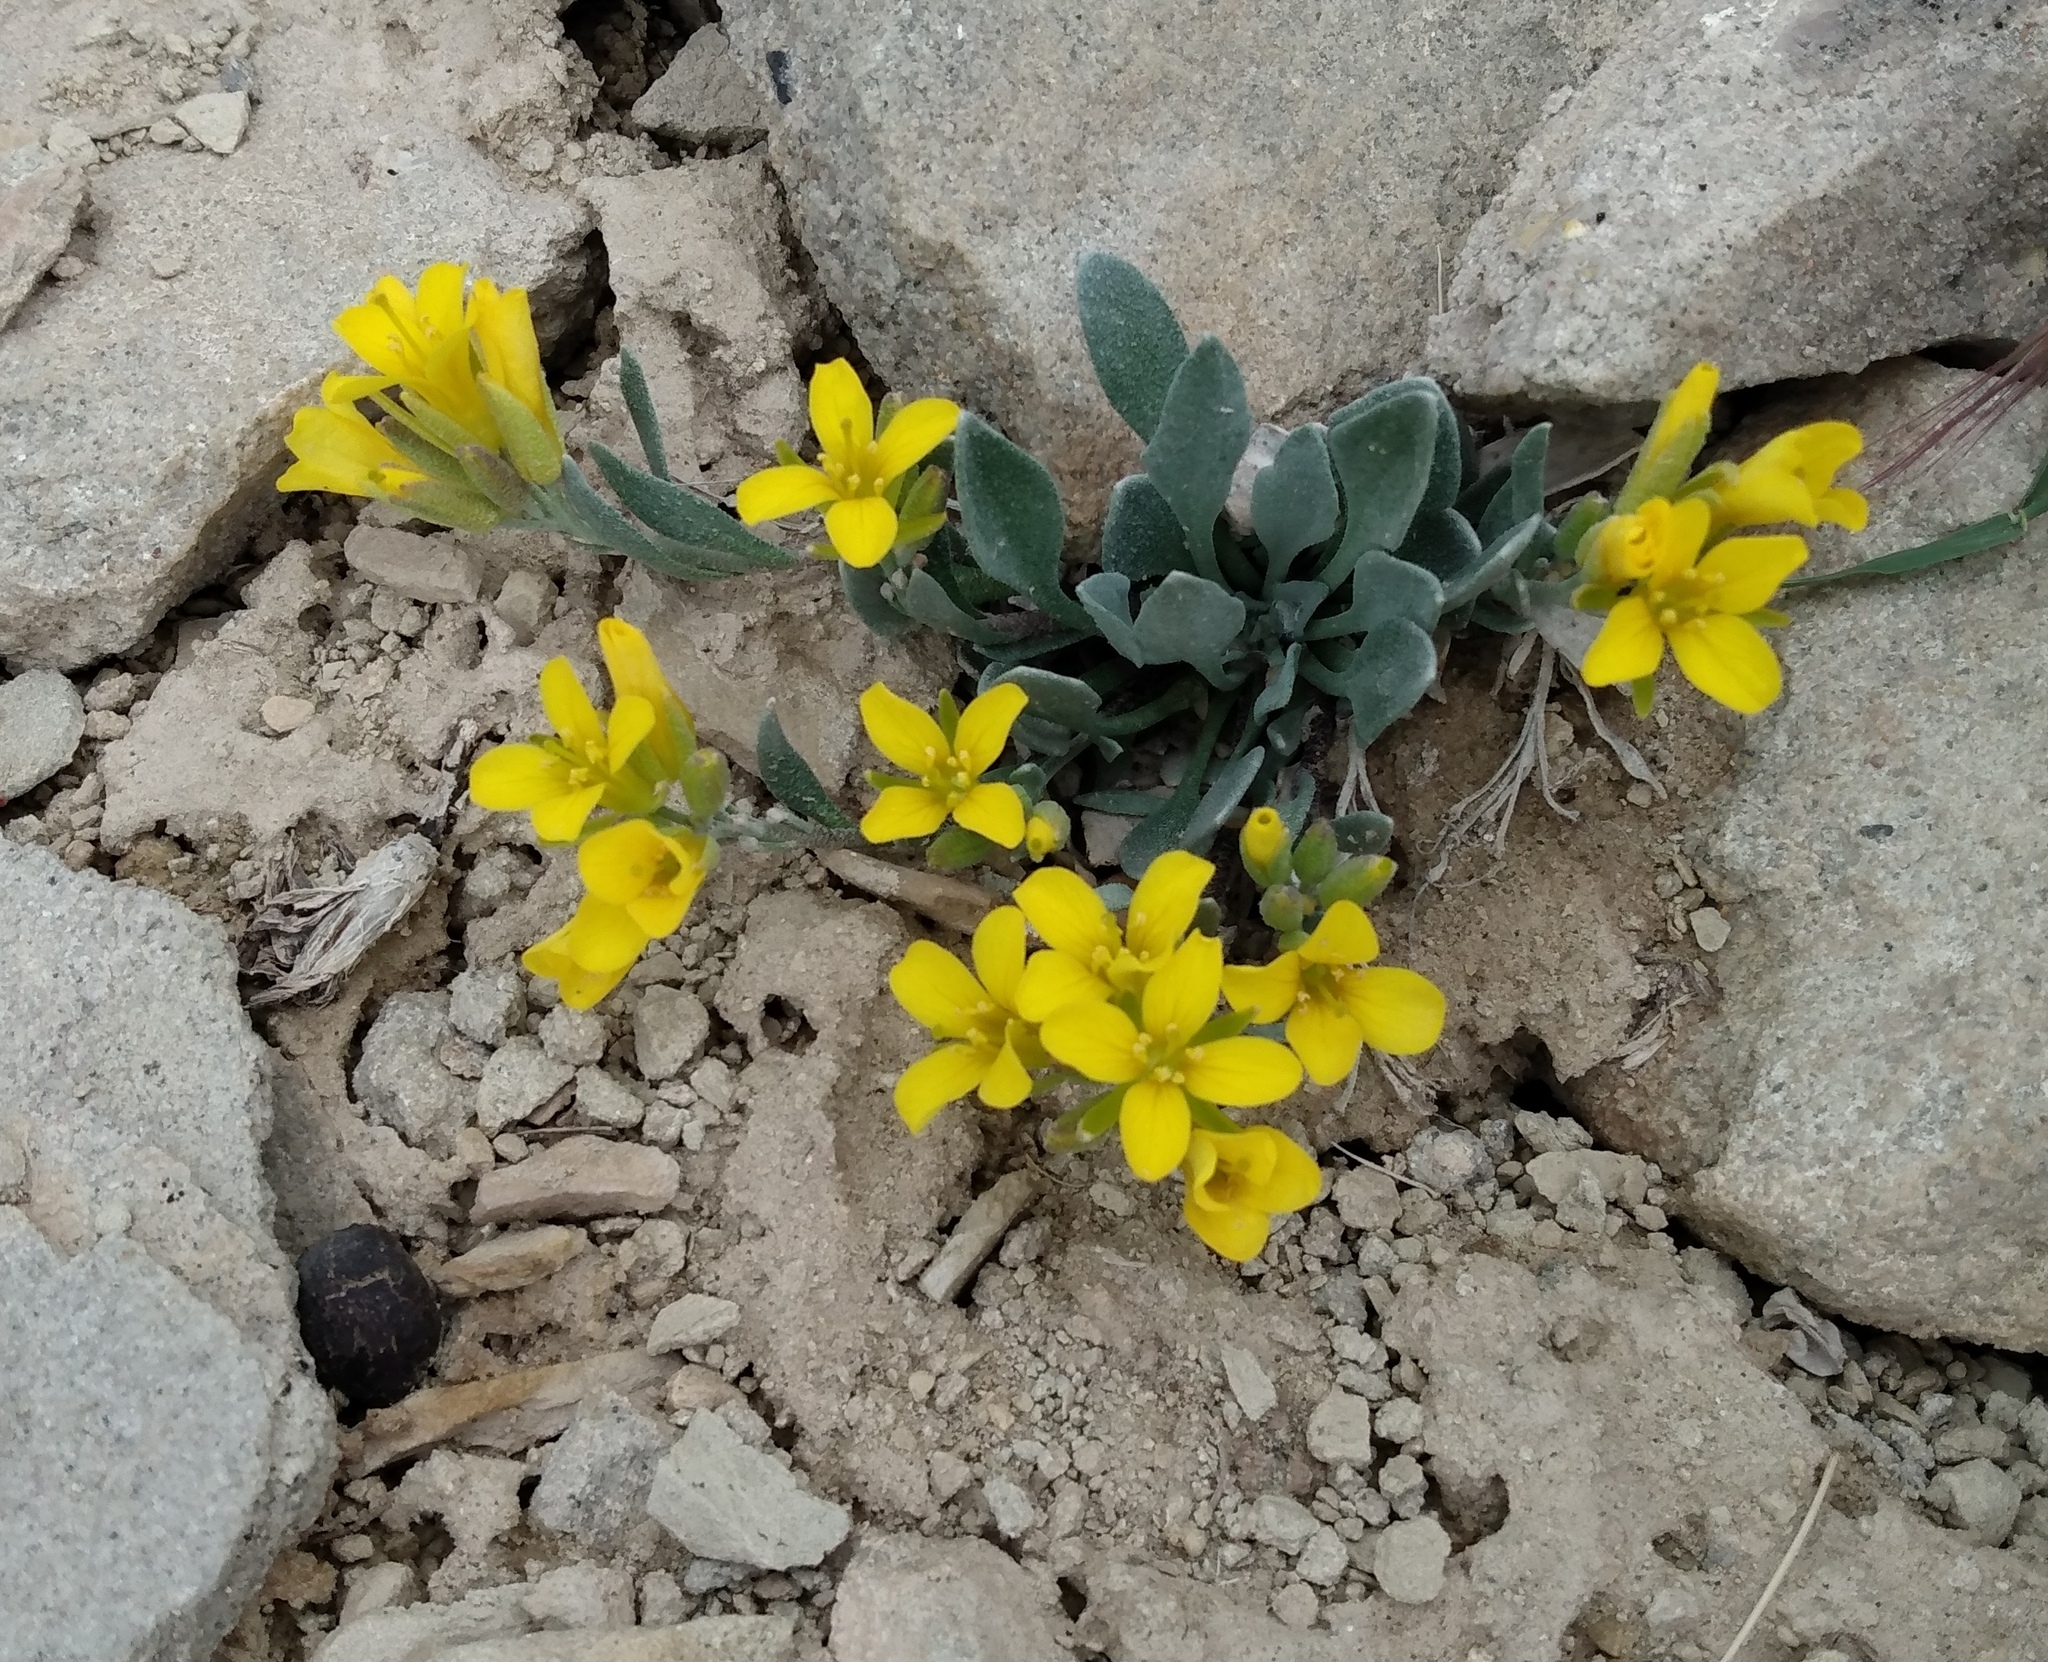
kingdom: Plantae
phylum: Tracheophyta
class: Magnoliopsida
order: Brassicales
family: Brassicaceae
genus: Physaria
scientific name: Physaria alpina
